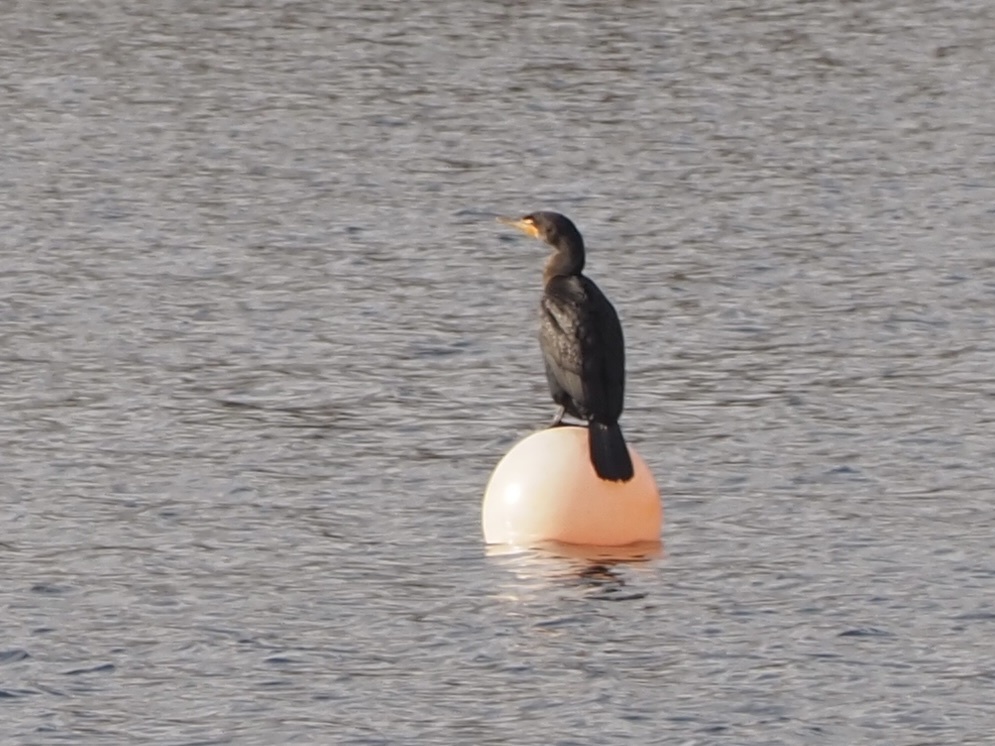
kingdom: Animalia
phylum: Chordata
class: Aves
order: Suliformes
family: Phalacrocoracidae
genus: Phalacrocorax
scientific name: Phalacrocorax auritus
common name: Double-crested cormorant
